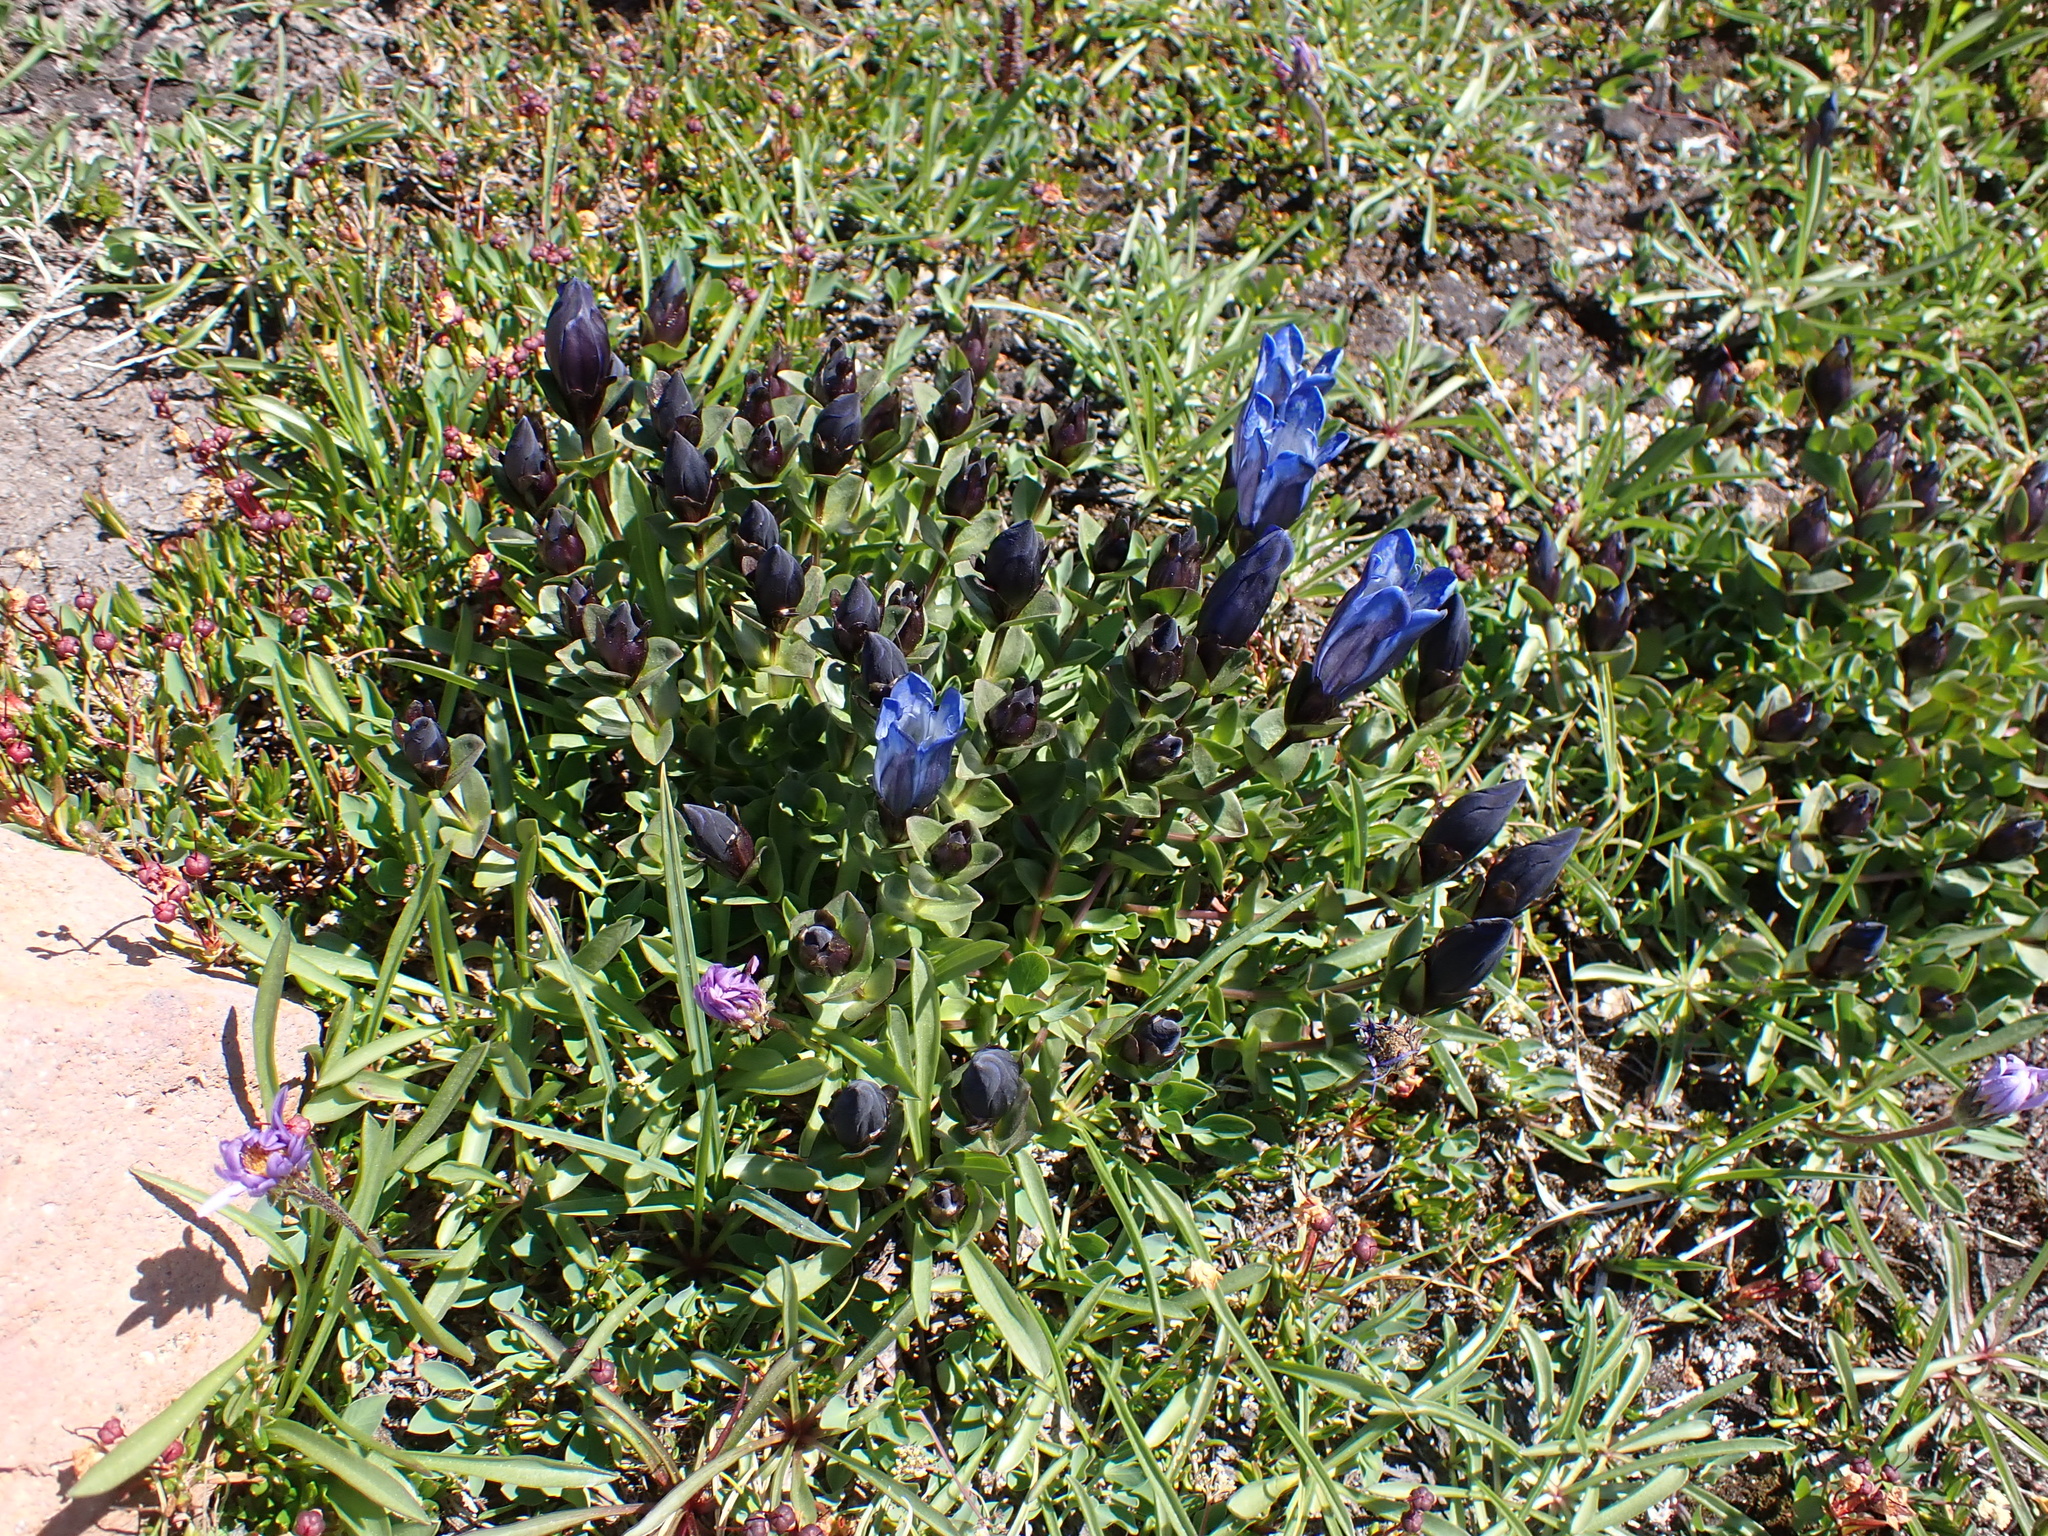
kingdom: Plantae
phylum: Tracheophyta
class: Magnoliopsida
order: Gentianales
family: Gentianaceae
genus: Gentiana
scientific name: Gentiana calycosa
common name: Rainier pleated gentian
